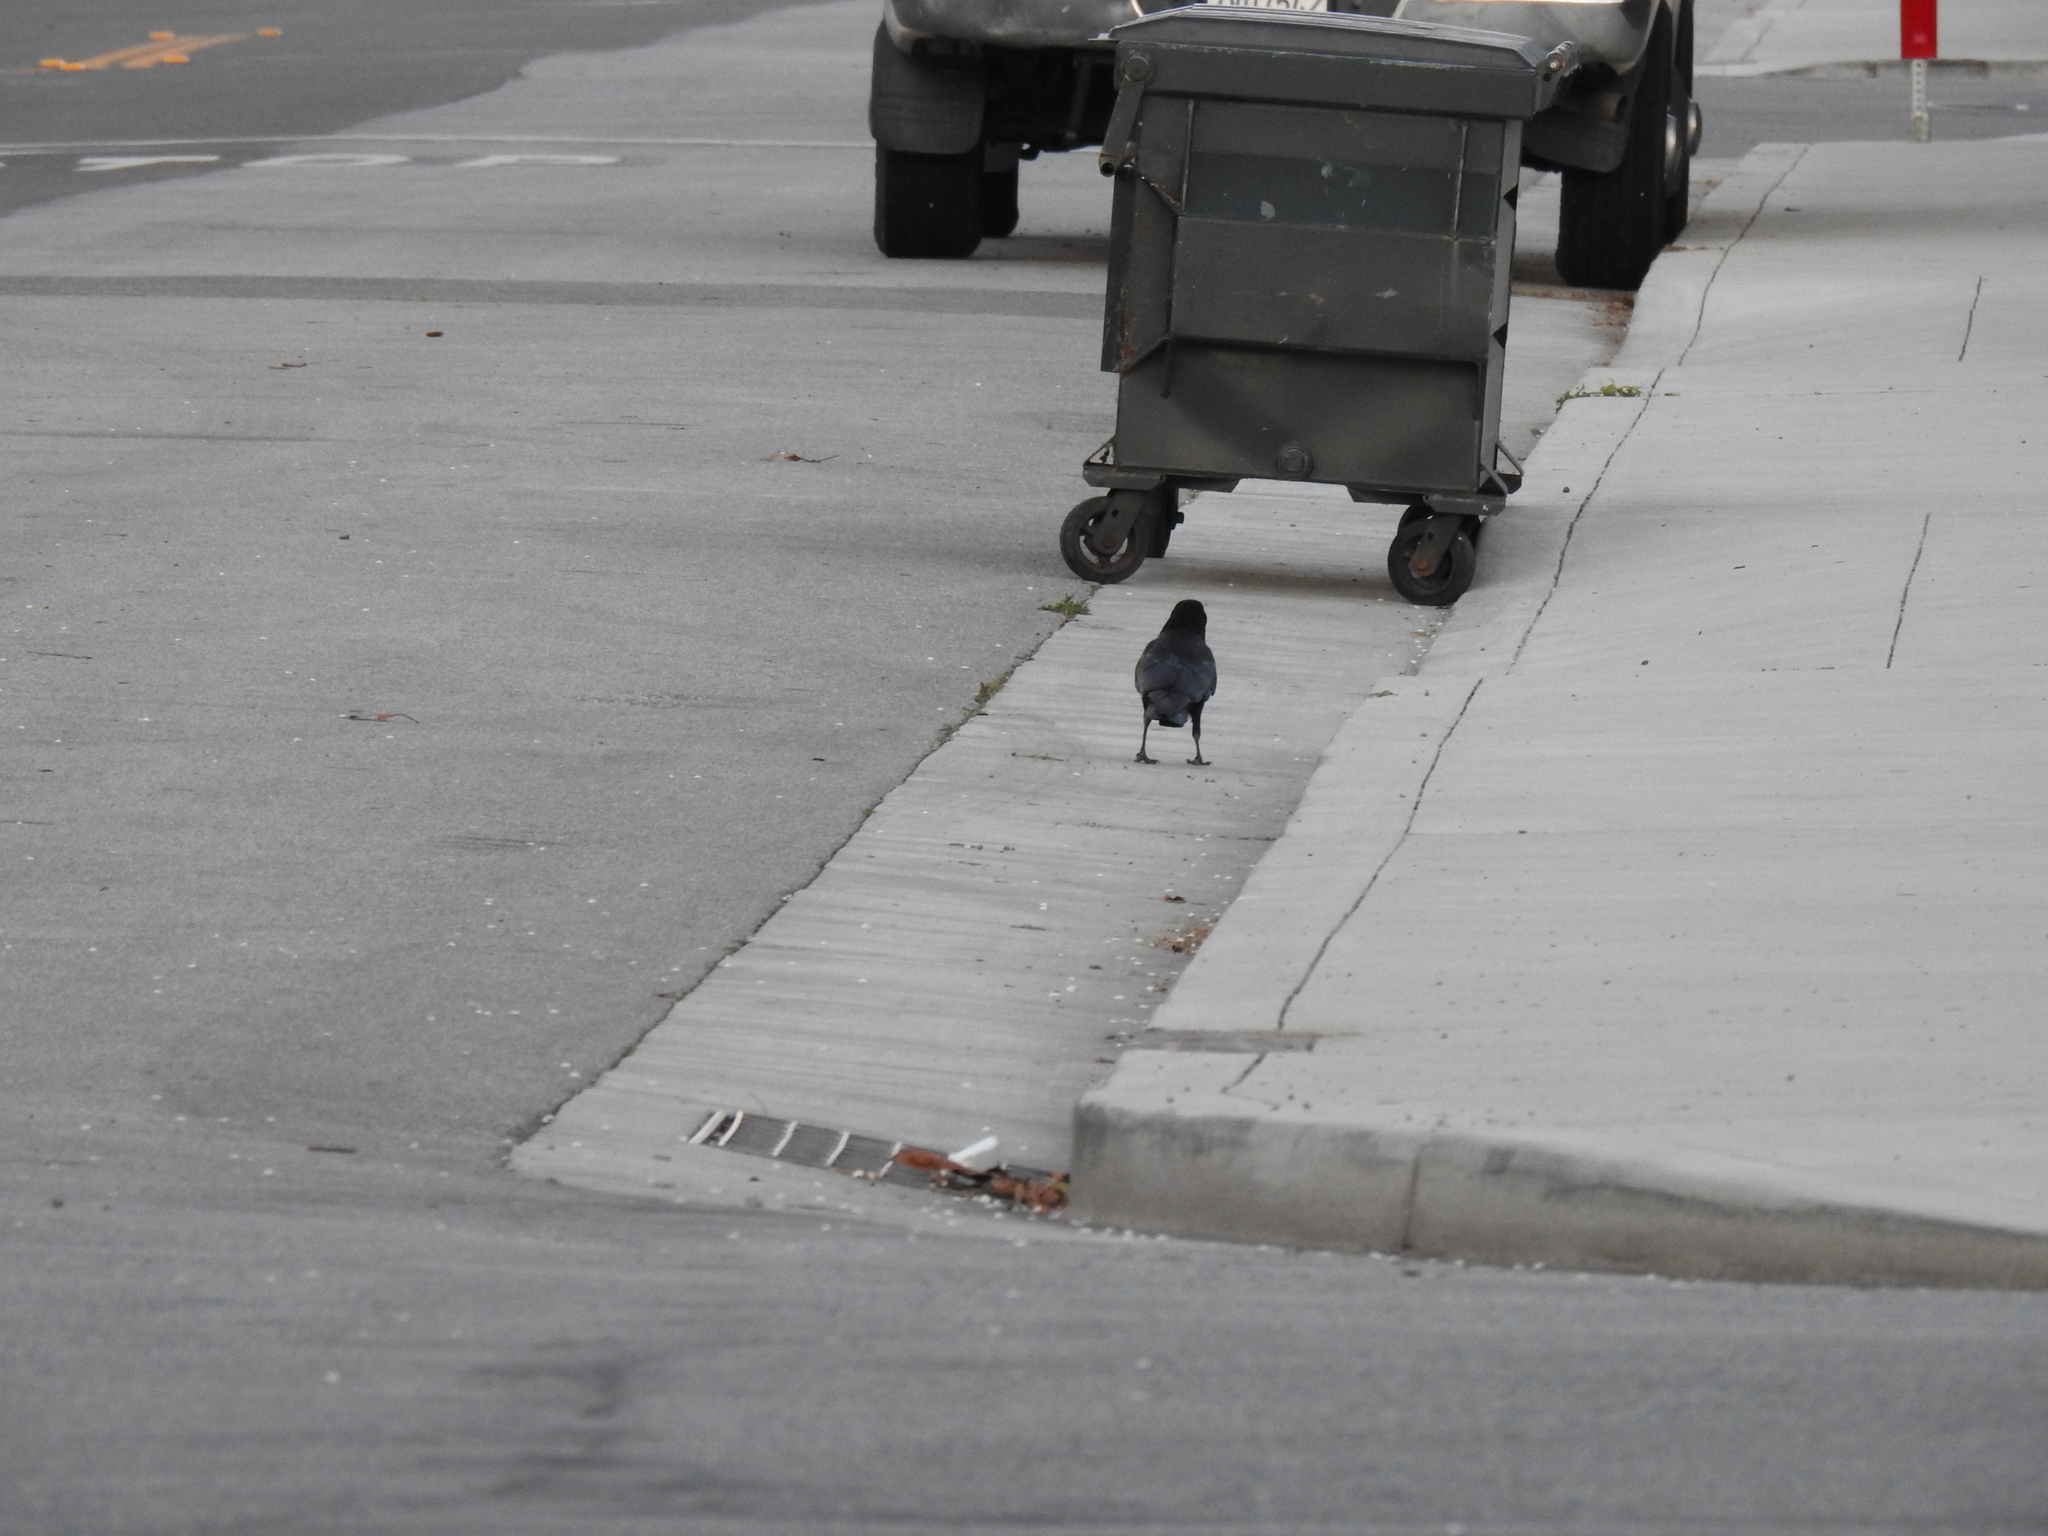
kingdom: Animalia
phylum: Chordata
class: Aves
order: Passeriformes
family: Corvidae
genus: Corvus
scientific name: Corvus brachyrhynchos
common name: American crow
